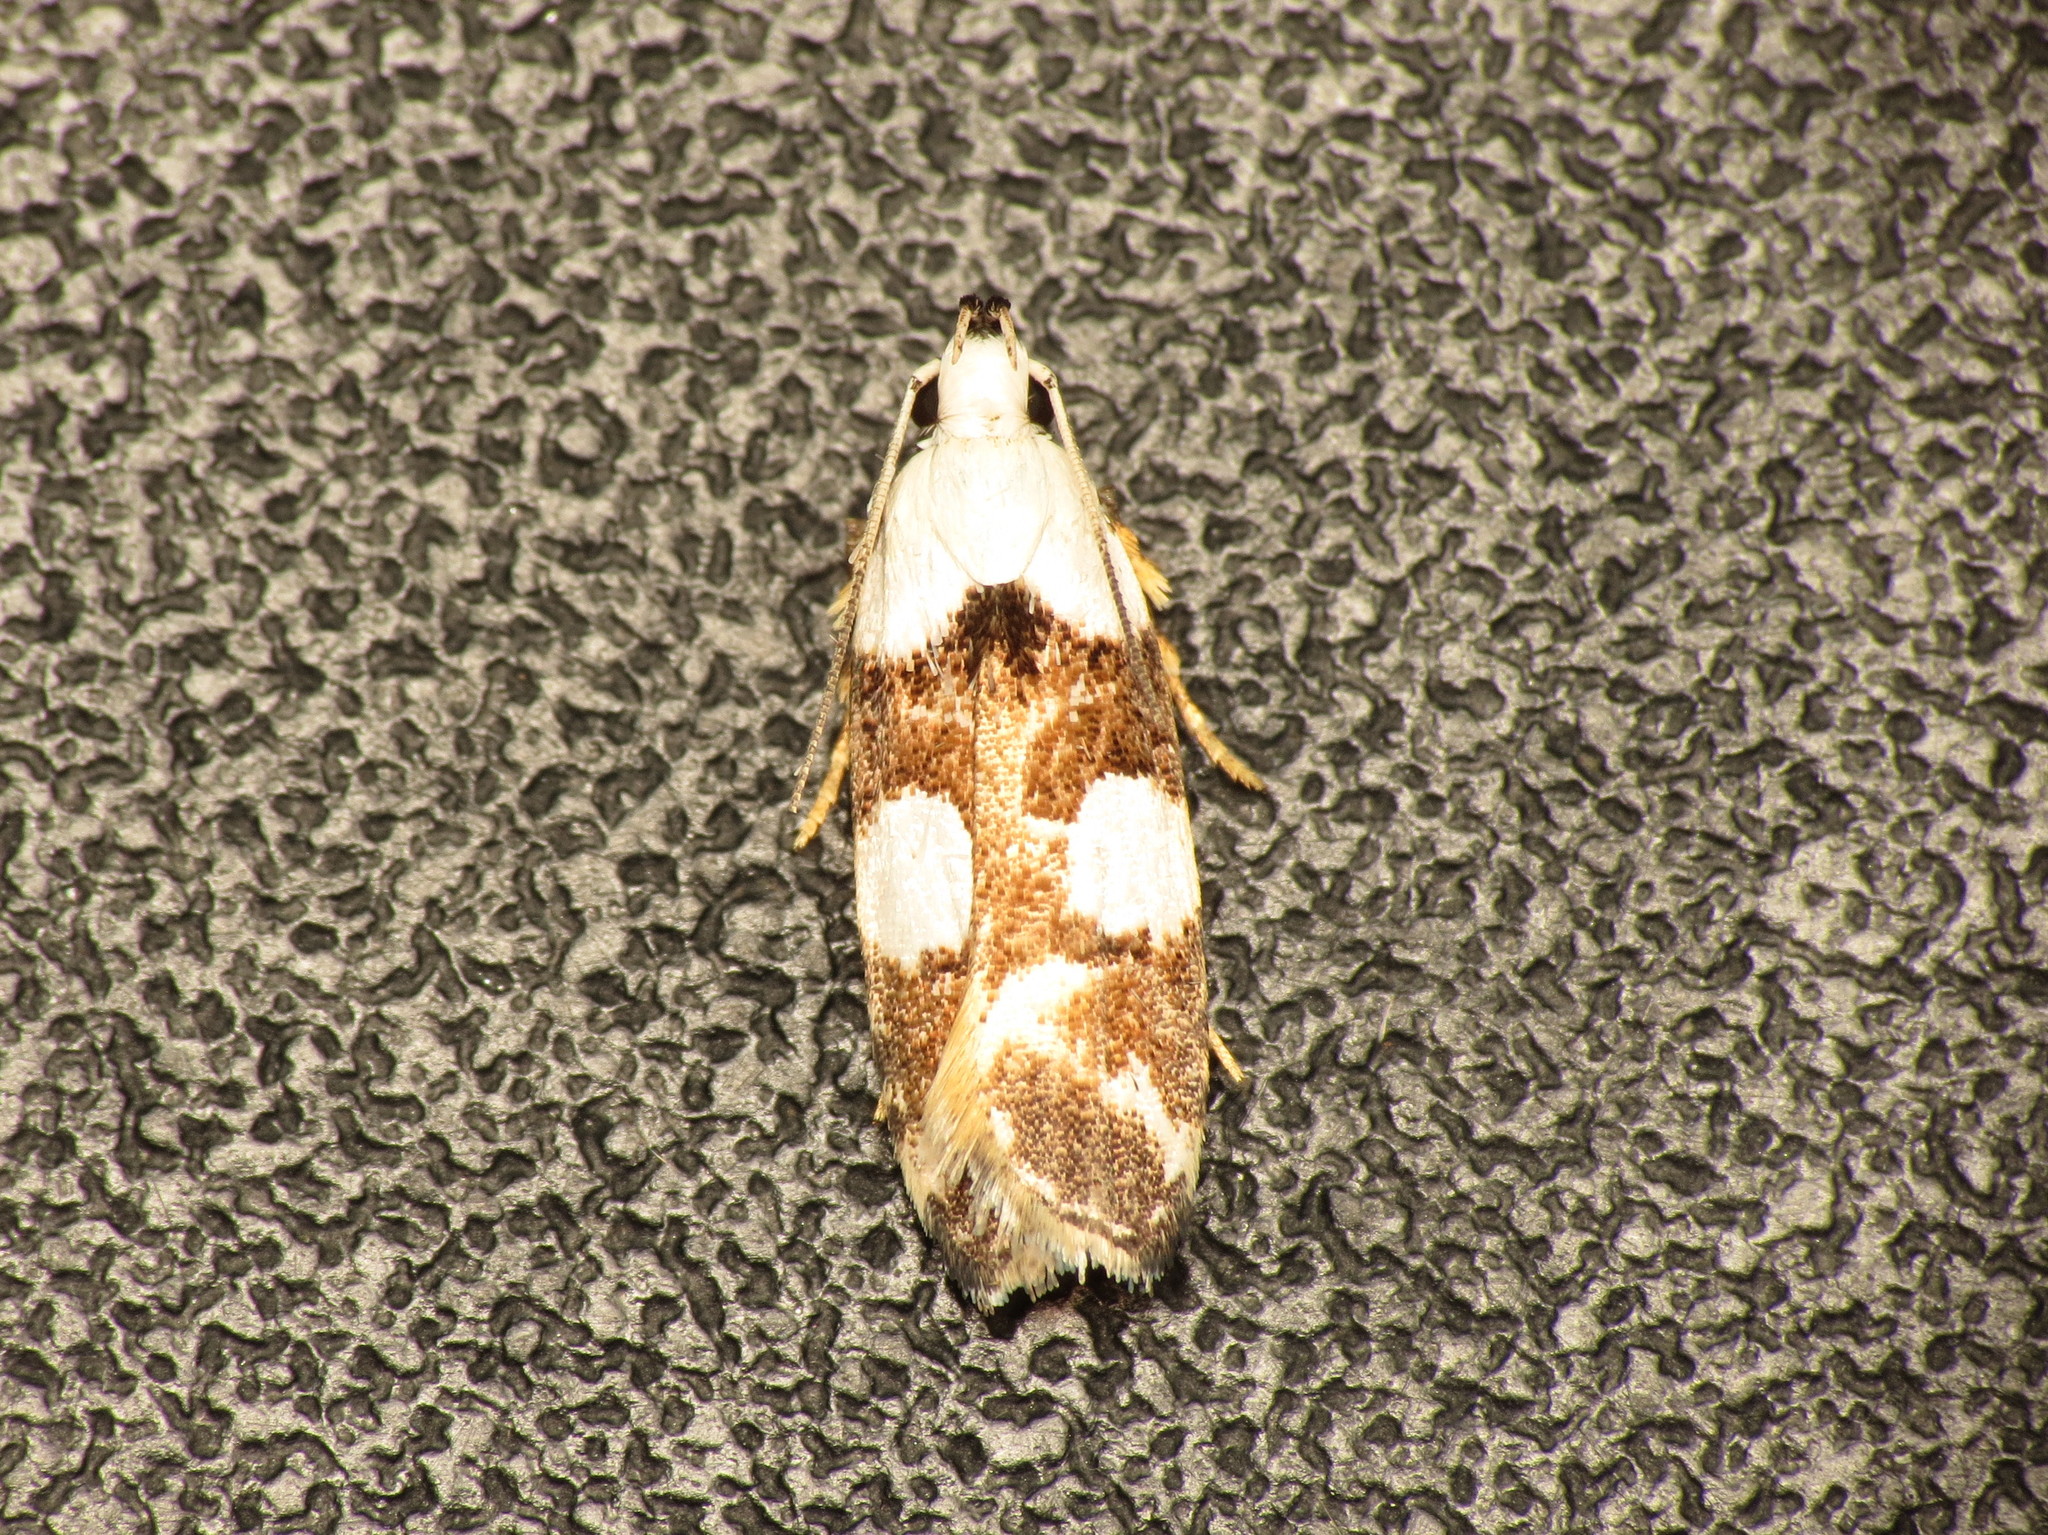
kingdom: Animalia
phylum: Arthropoda
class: Insecta
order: Lepidoptera
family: Gelechiidae
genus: Ardozyga
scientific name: Ardozyga Orthoptila abruptella
